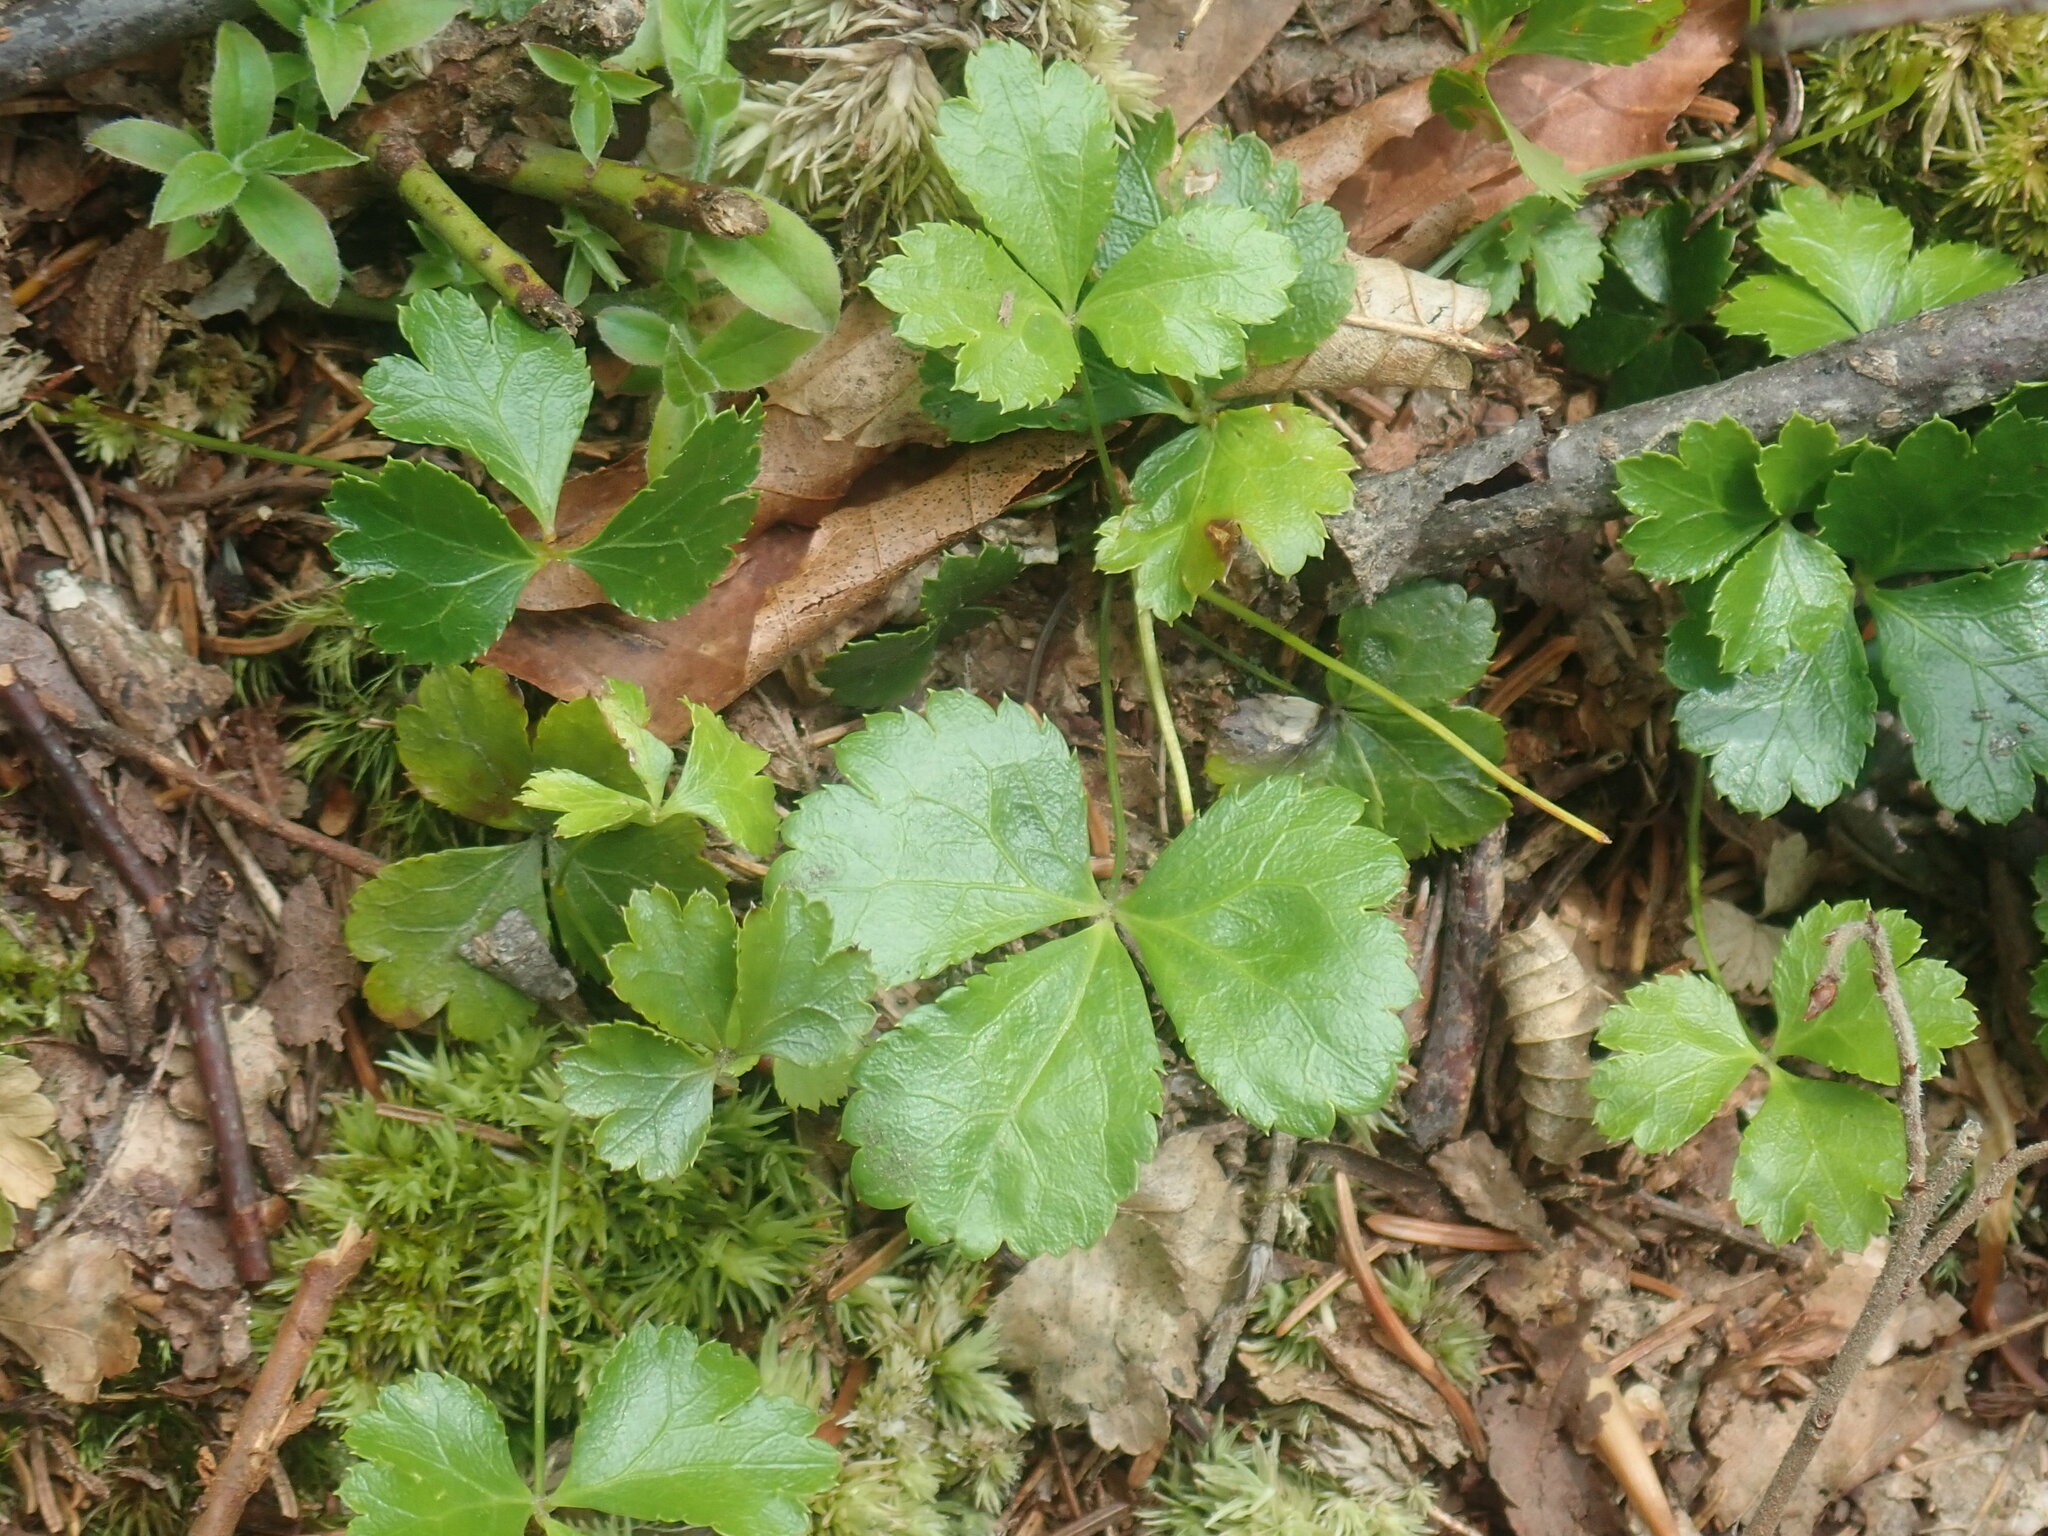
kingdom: Plantae
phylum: Tracheophyta
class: Magnoliopsida
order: Ranunculales
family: Ranunculaceae
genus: Coptis
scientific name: Coptis trifolia
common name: Canker-root
